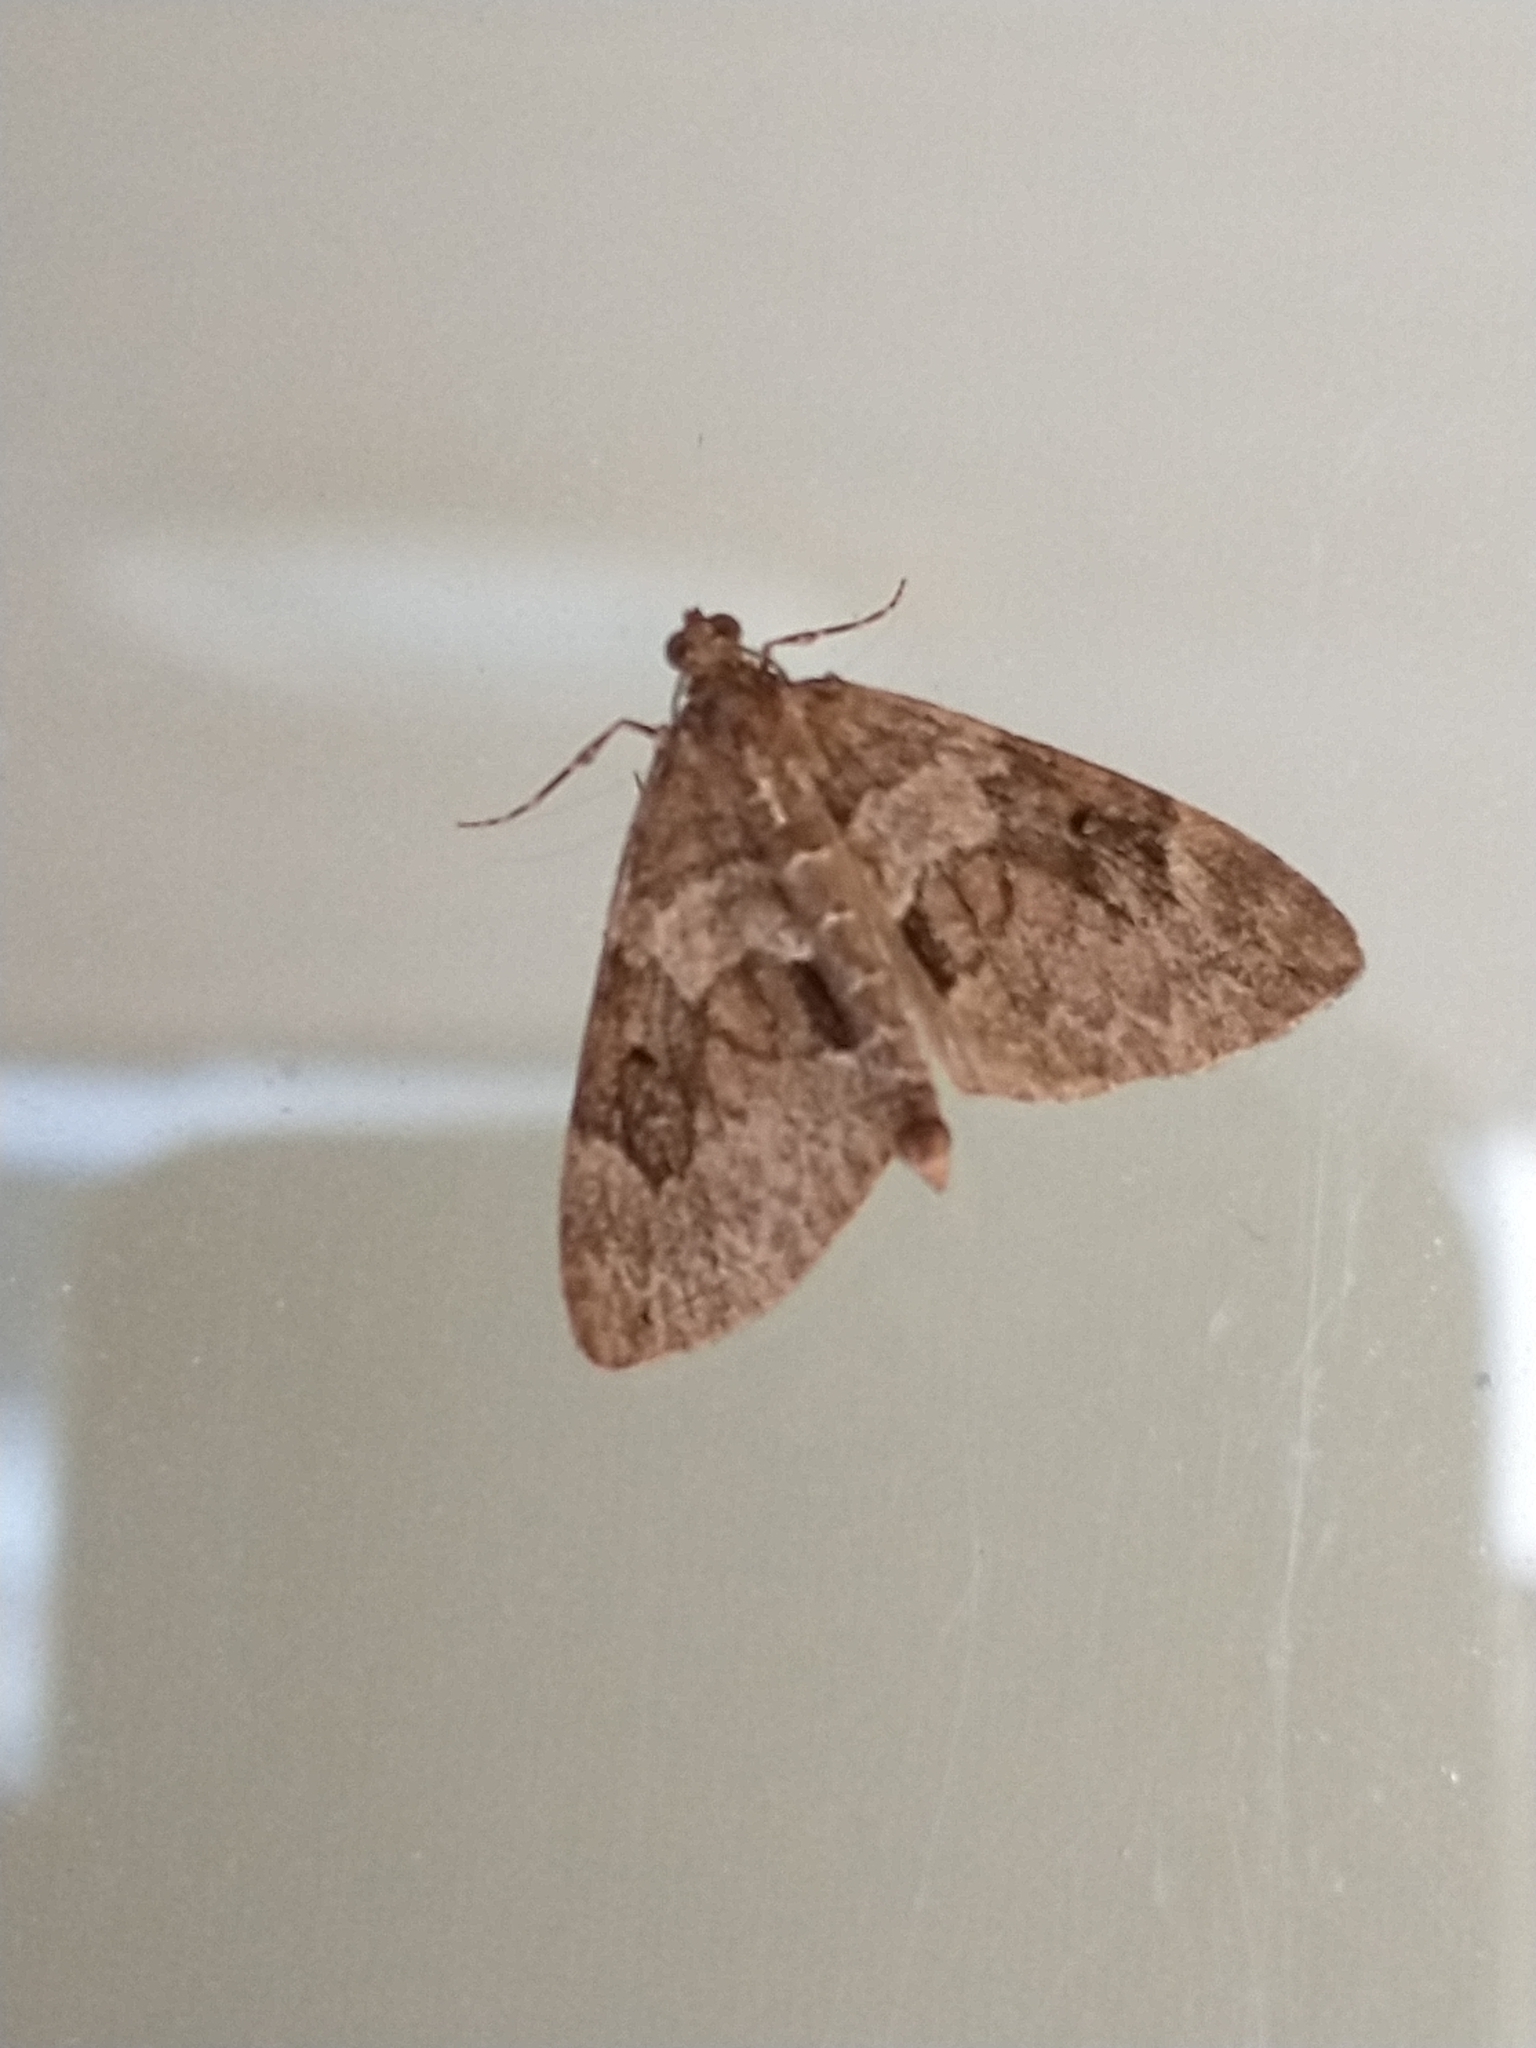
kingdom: Animalia
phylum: Arthropoda
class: Insecta
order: Lepidoptera
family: Geometridae
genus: Thera
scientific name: Thera britannica
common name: Spruce carpet
